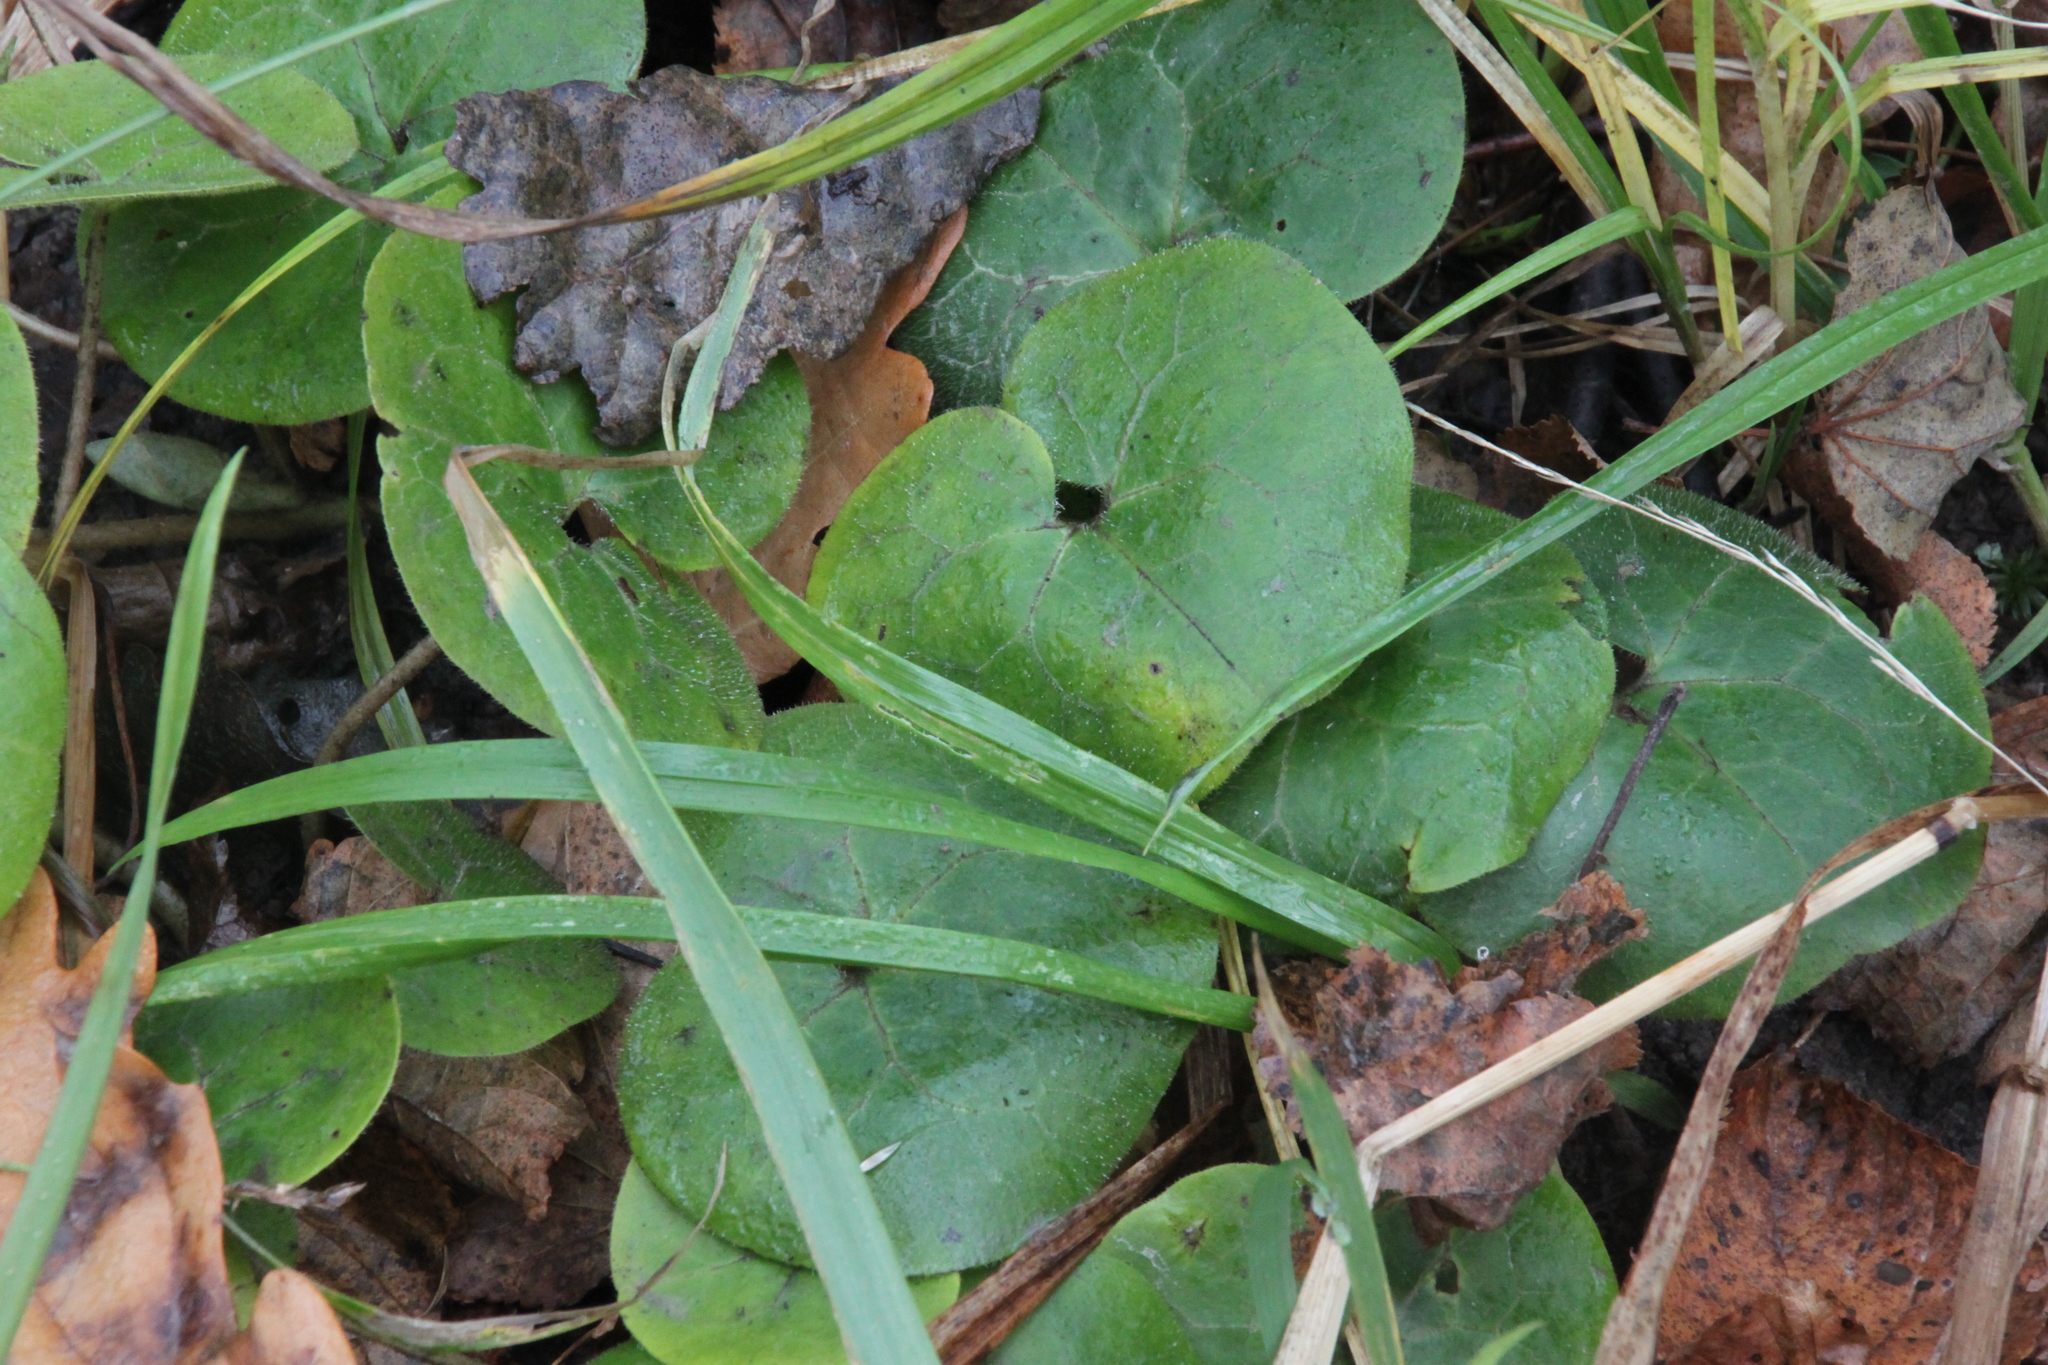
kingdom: Plantae
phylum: Tracheophyta
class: Magnoliopsida
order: Piperales
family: Aristolochiaceae
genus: Asarum
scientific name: Asarum europaeum
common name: Asarabacca
